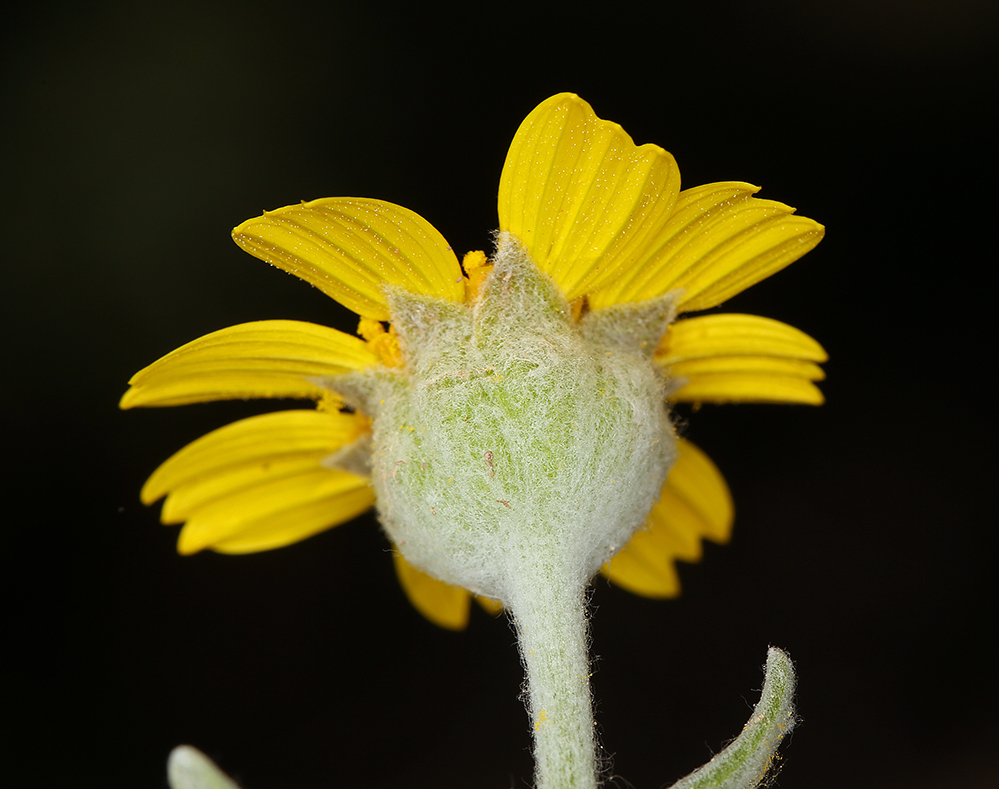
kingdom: Plantae
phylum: Tracheophyta
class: Magnoliopsida
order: Asterales
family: Asteraceae
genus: Monolopia
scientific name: Monolopia lanceolata
